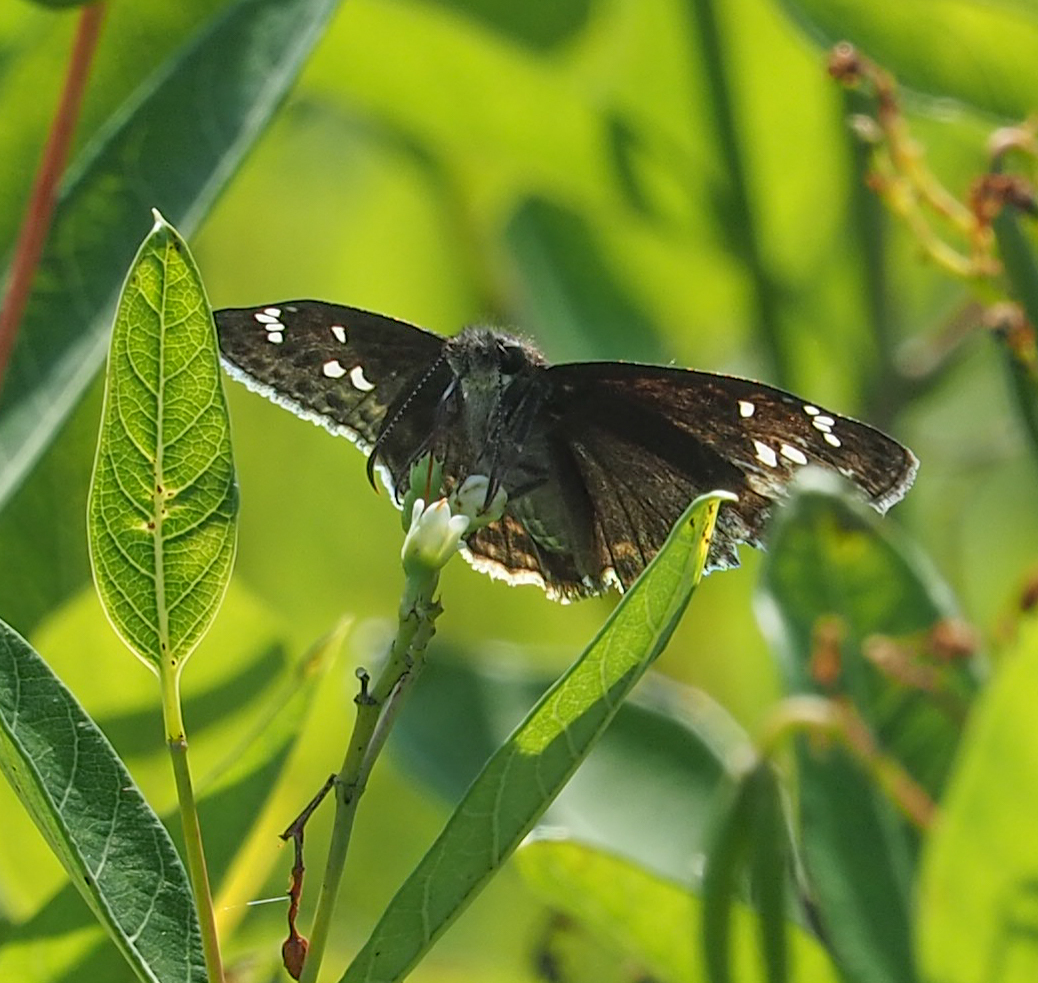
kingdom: Animalia
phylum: Arthropoda
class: Insecta
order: Lepidoptera
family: Hesperiidae
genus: Erynnis
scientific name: Erynnis horatius
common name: Horace's duskywing
